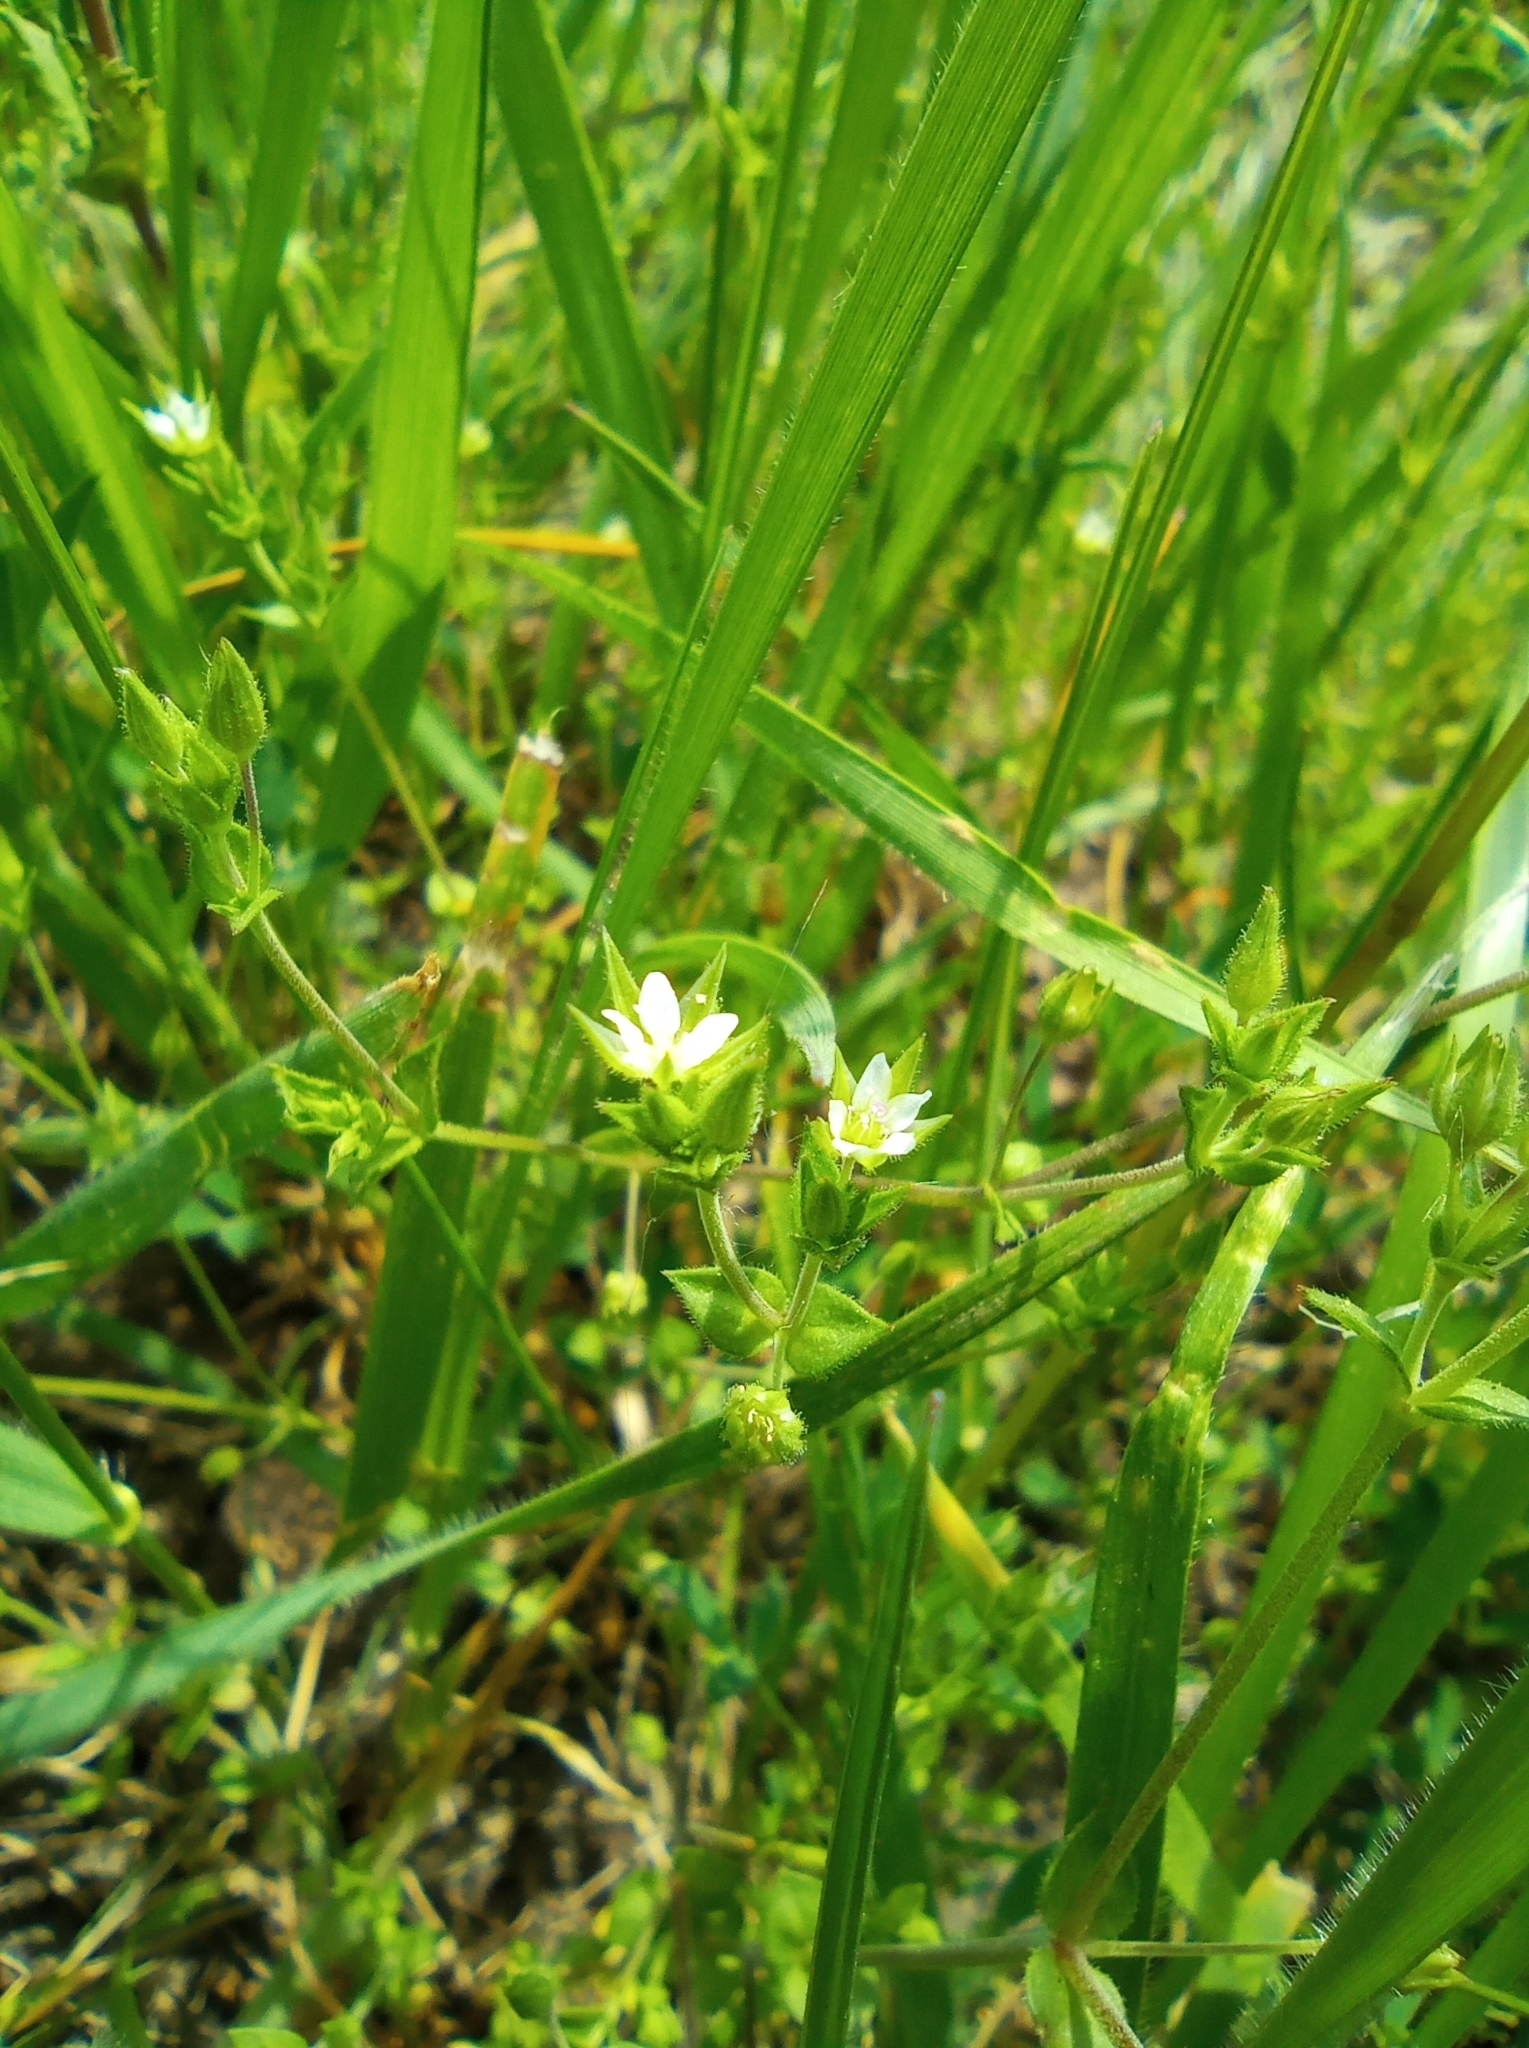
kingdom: Plantae
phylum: Tracheophyta
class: Magnoliopsida
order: Caryophyllales
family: Caryophyllaceae
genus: Arenaria
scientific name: Arenaria serpyllifolia
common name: Thyme-leaved sandwort
